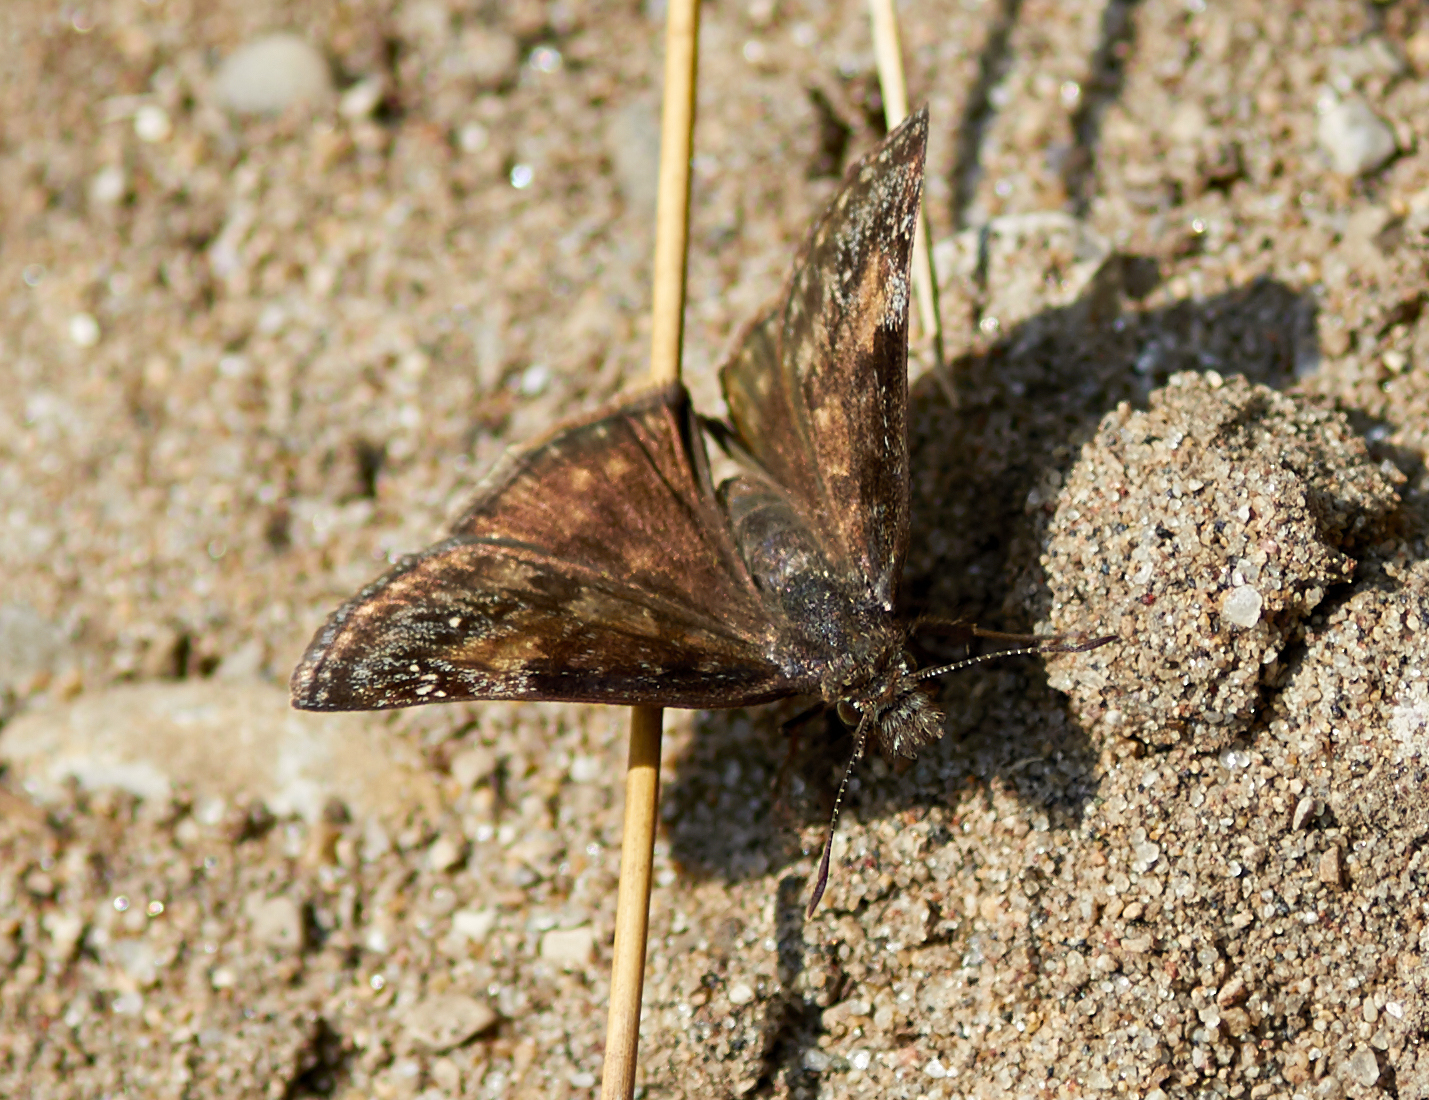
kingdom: Animalia
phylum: Arthropoda
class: Insecta
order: Lepidoptera
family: Hesperiidae
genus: Erynnis
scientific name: Erynnis baptisiae
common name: Wild indigo duskywing
